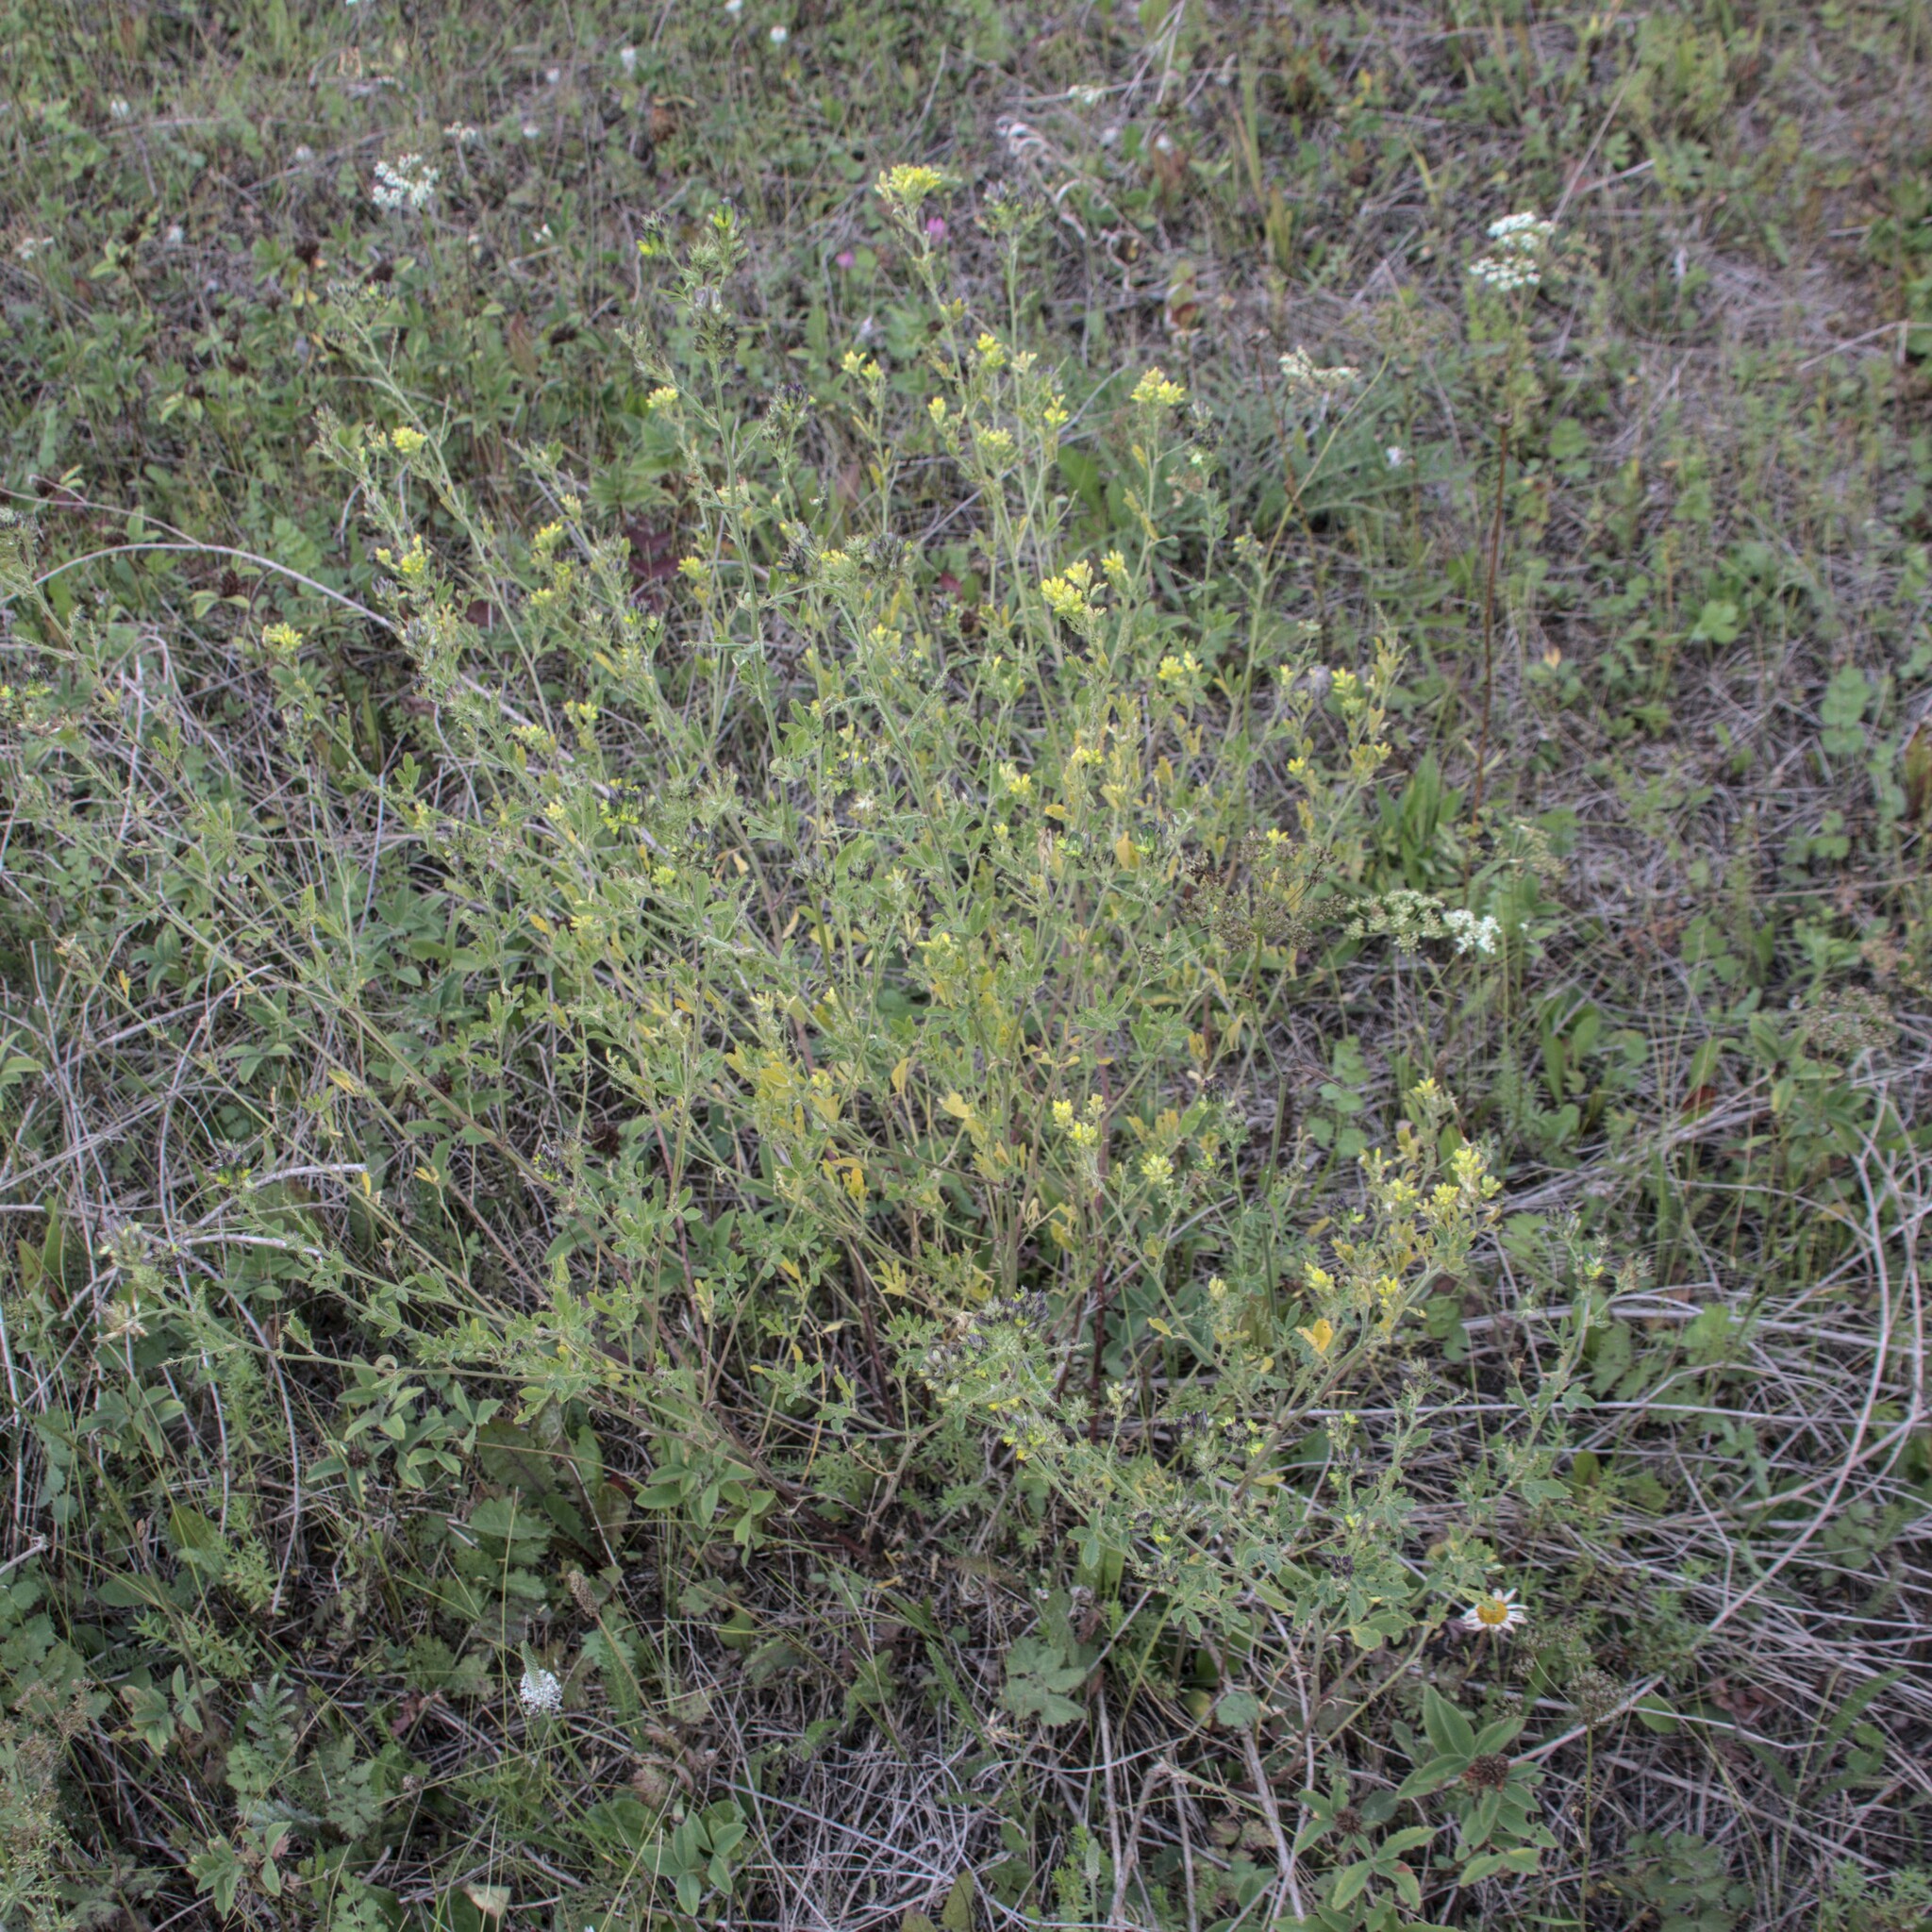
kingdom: Plantae
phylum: Tracheophyta
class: Magnoliopsida
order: Fabales
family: Fabaceae
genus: Medicago
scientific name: Medicago varia
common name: Sand lucerne
